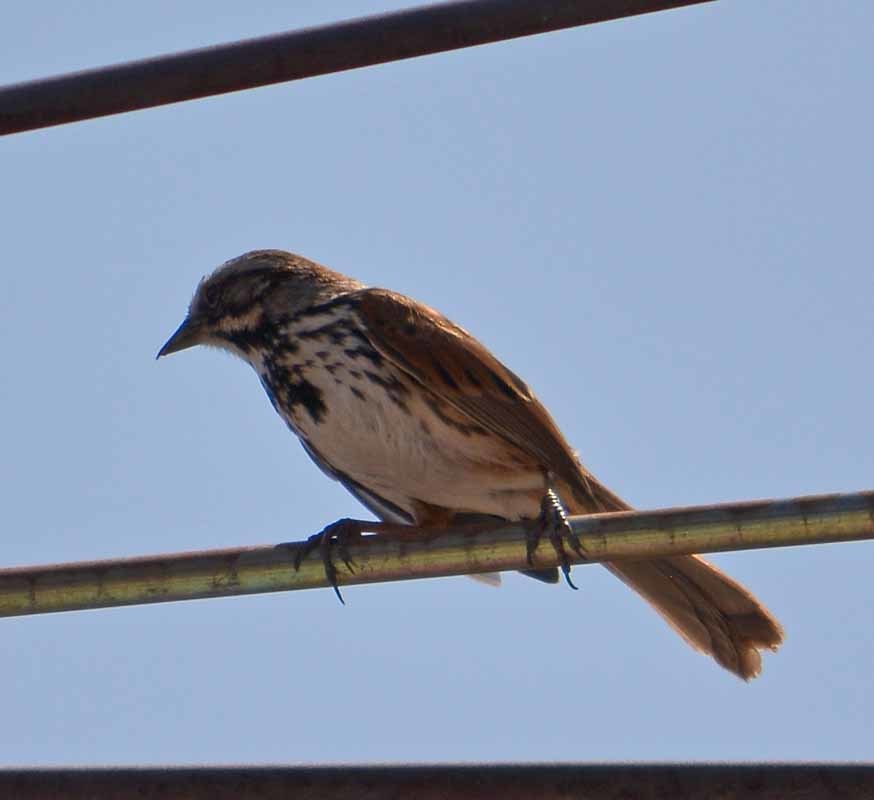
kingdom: Animalia
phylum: Chordata
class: Aves
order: Passeriformes
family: Passerellidae
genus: Melospiza
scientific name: Melospiza melodia
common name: Song sparrow
